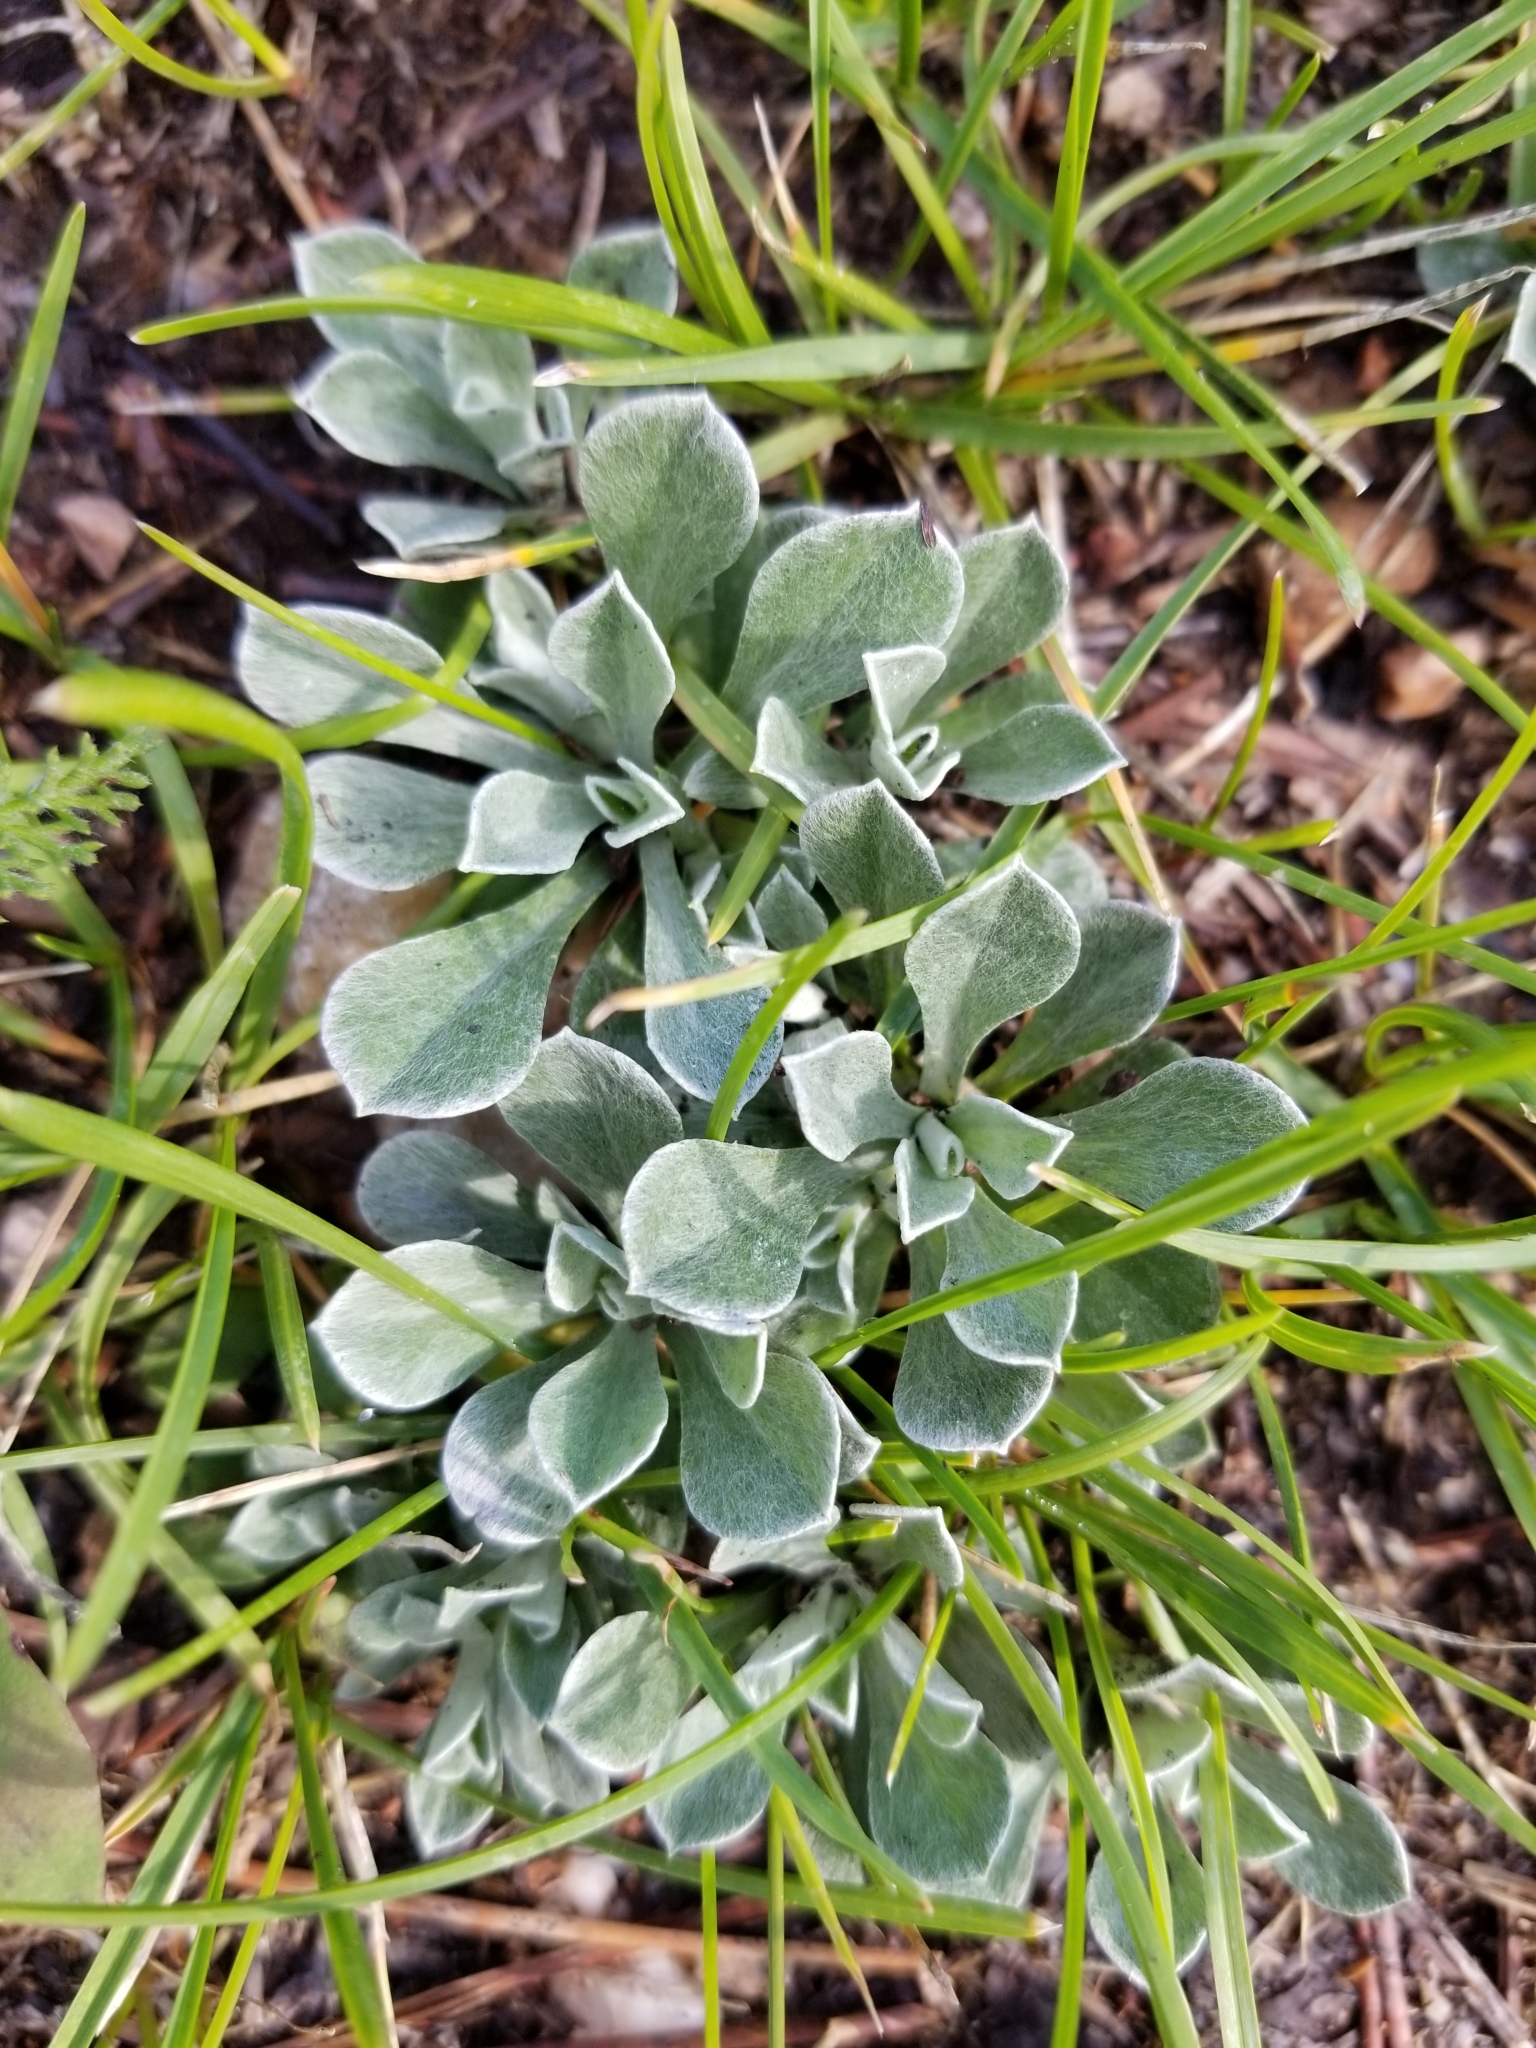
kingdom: Plantae
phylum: Tracheophyta
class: Magnoliopsida
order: Asterales
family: Asteraceae
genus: Antennaria
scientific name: Antennaria parvifolia
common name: Nuttall's pussytoes
